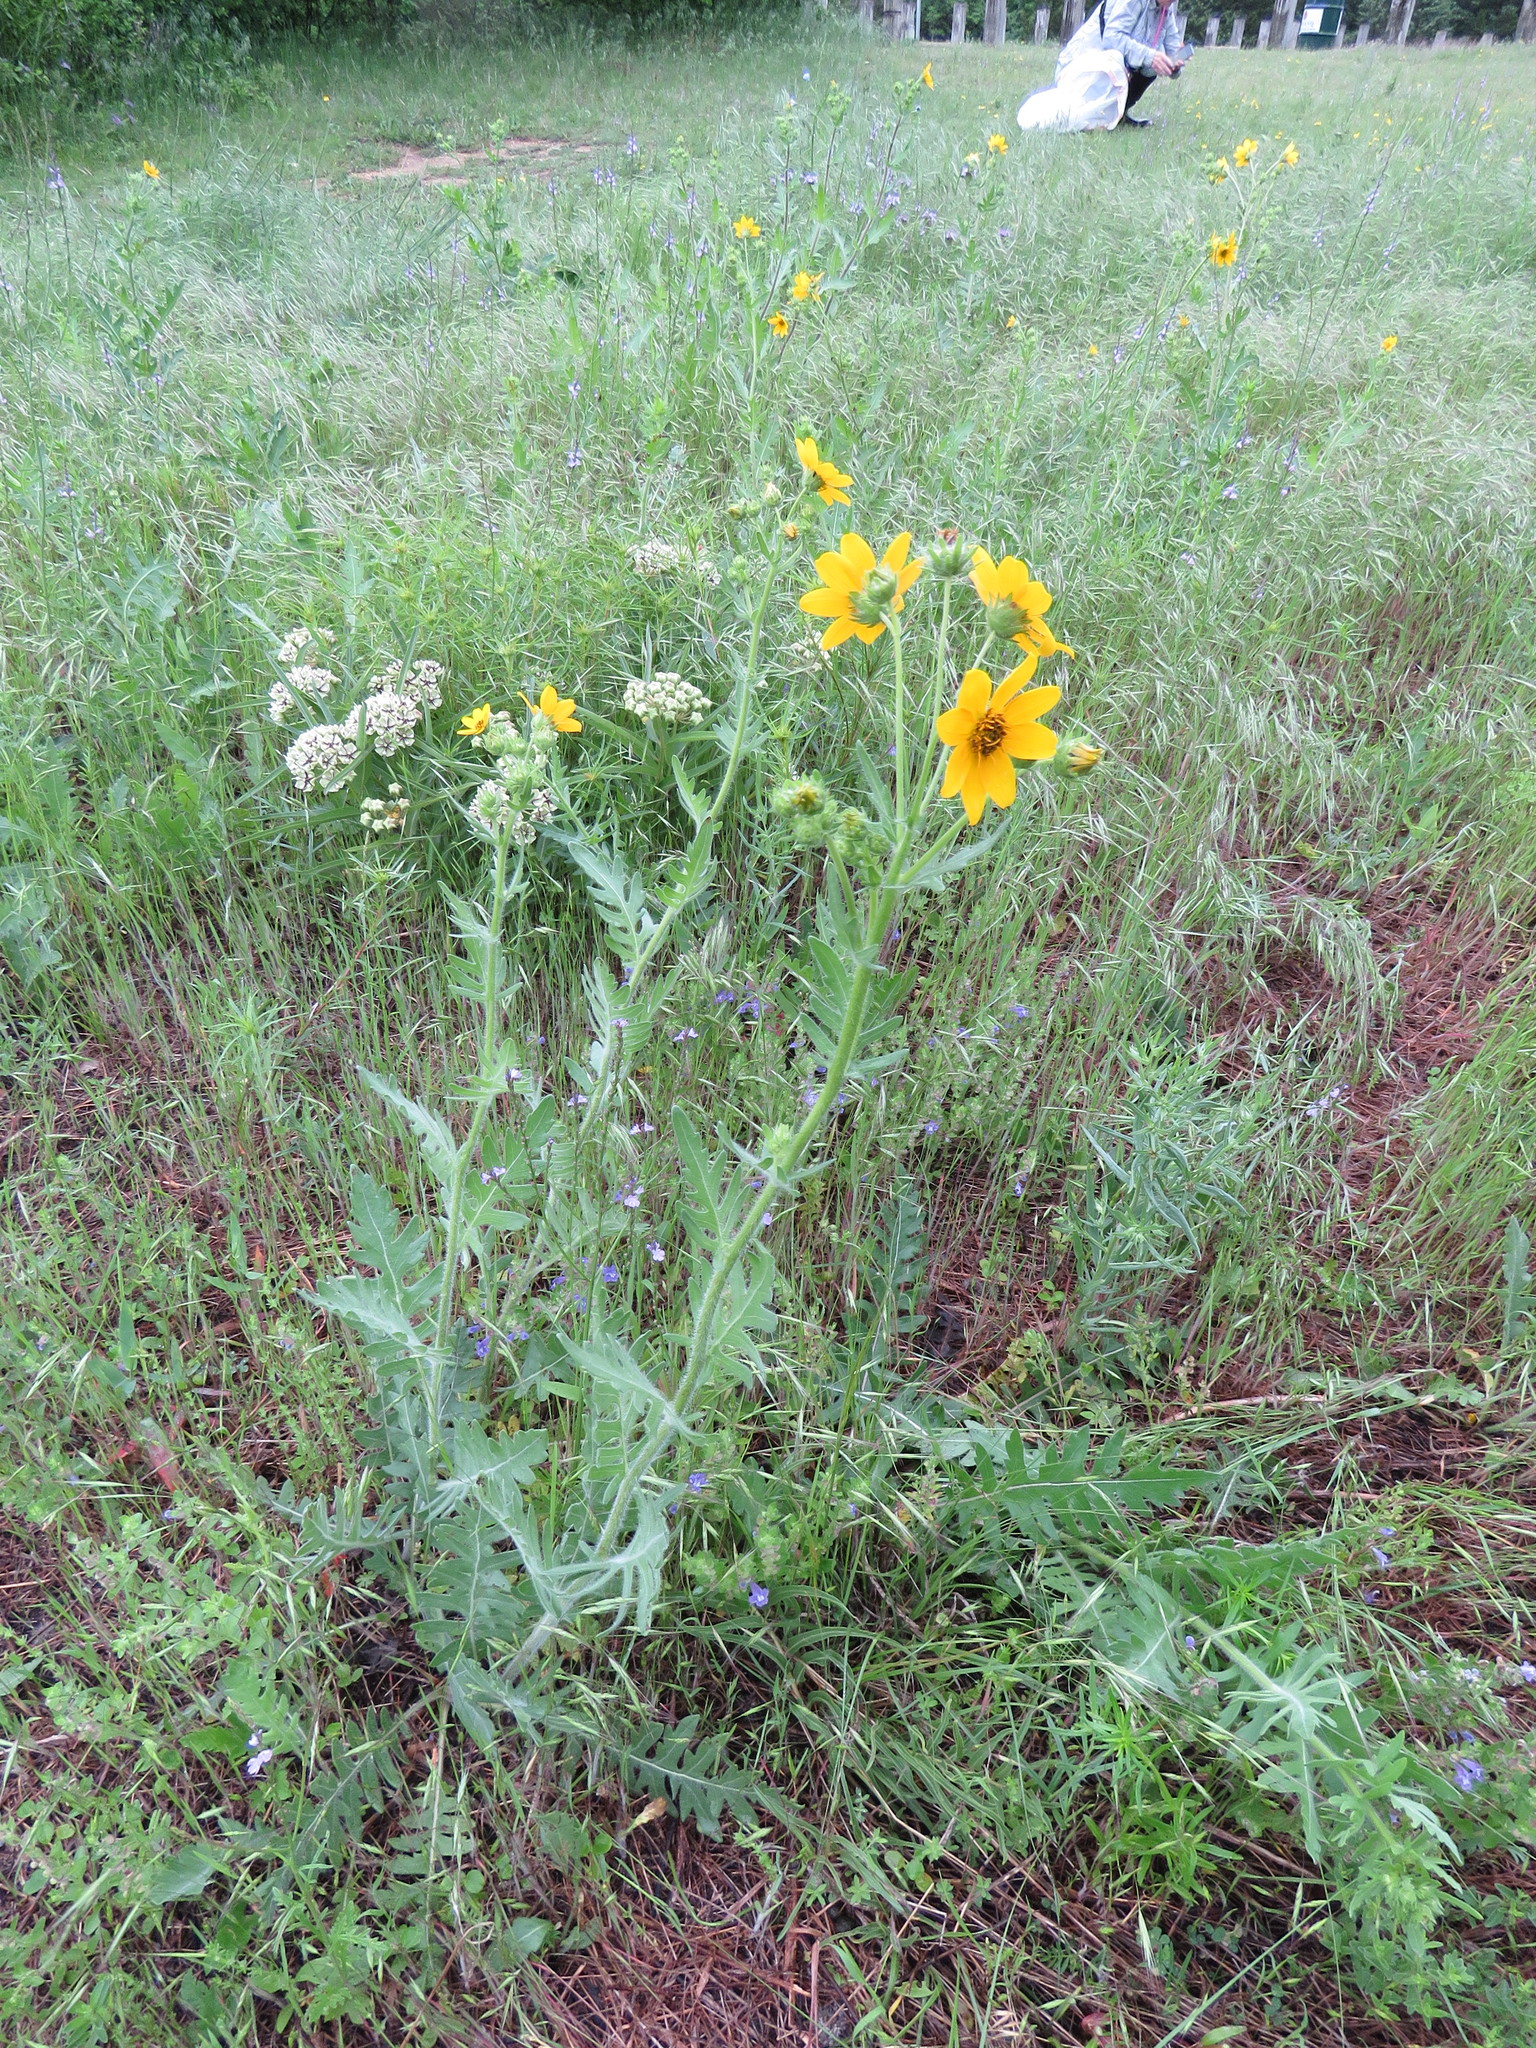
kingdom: Plantae
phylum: Tracheophyta
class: Magnoliopsida
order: Asterales
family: Asteraceae
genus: Engelmannia
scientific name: Engelmannia peristenia
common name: Engelmann's daisy
